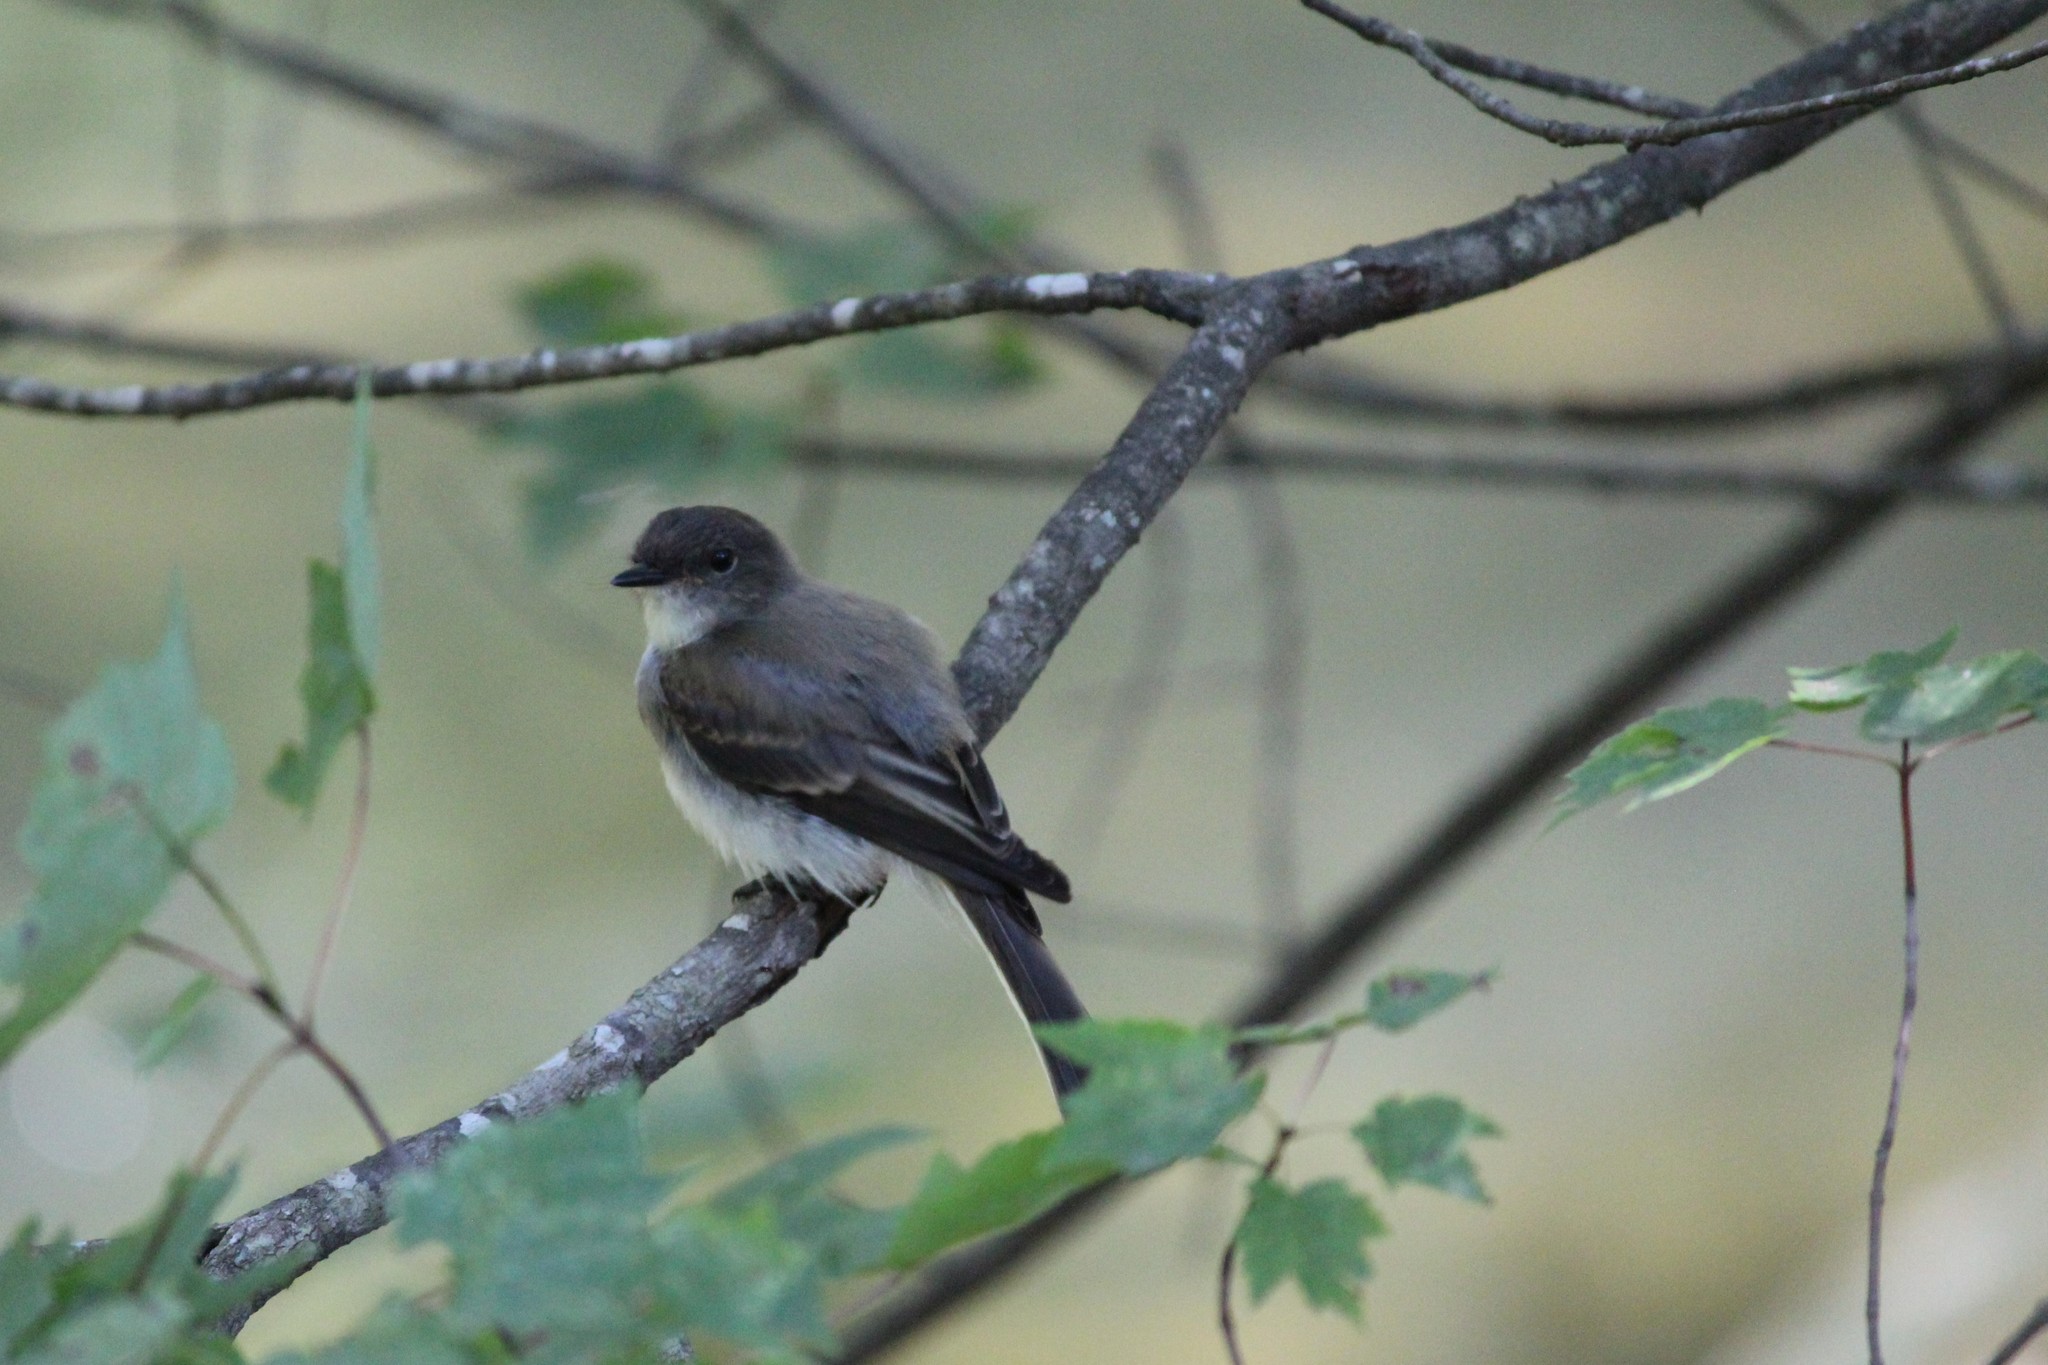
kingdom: Animalia
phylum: Chordata
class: Aves
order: Passeriformes
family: Tyrannidae
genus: Sayornis
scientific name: Sayornis phoebe
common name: Eastern phoebe
